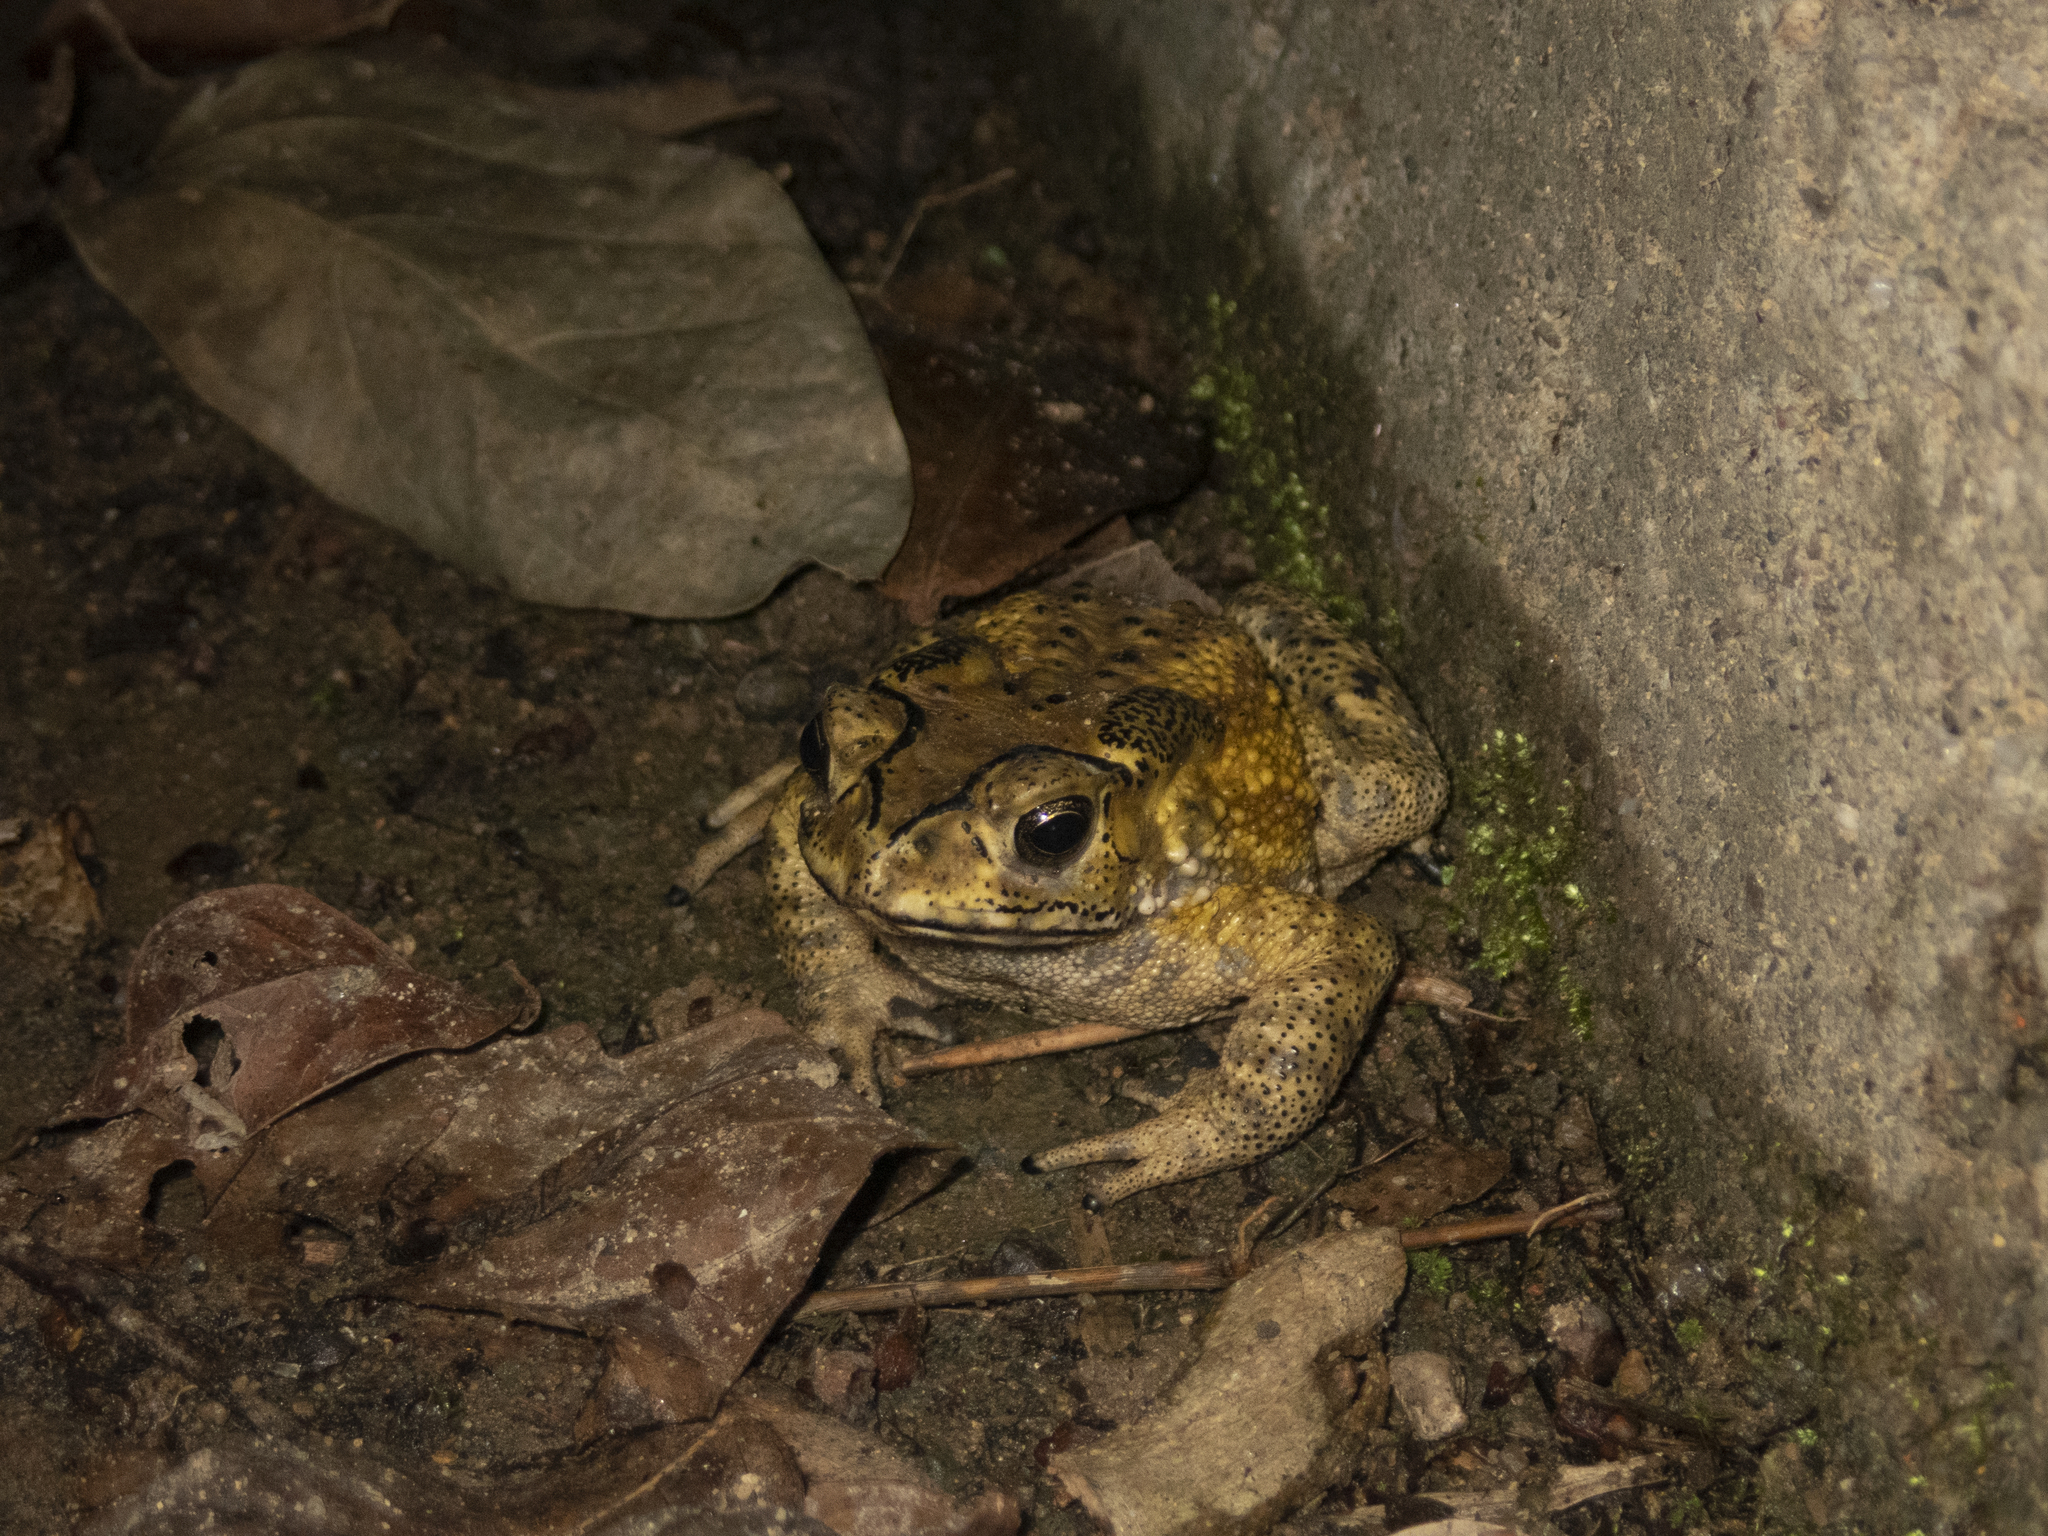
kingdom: Animalia
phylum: Chordata
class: Amphibia
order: Anura
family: Bufonidae
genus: Duttaphrynus
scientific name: Duttaphrynus melanostictus
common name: Common sunda toad
